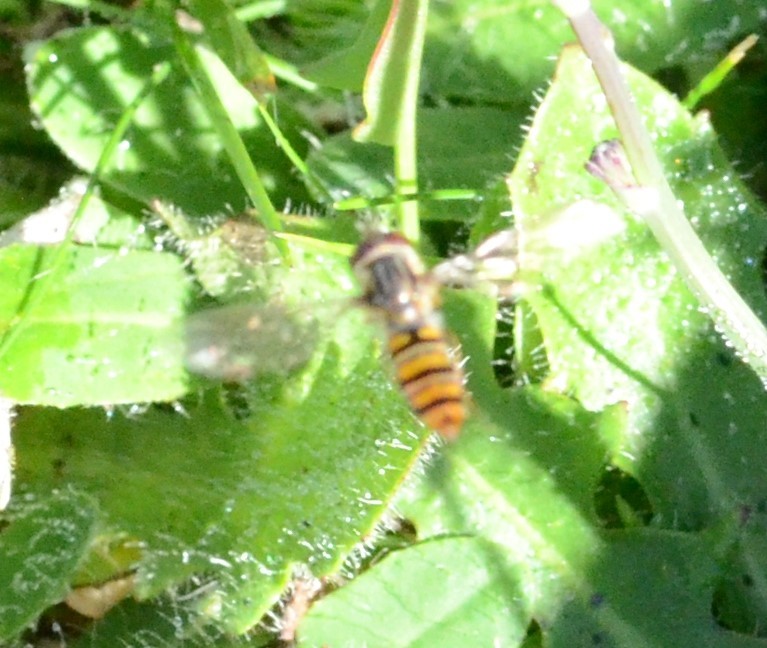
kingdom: Animalia
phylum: Arthropoda
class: Insecta
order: Diptera
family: Syrphidae
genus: Episyrphus
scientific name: Episyrphus balteatus
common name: Marmalade hoverfly
